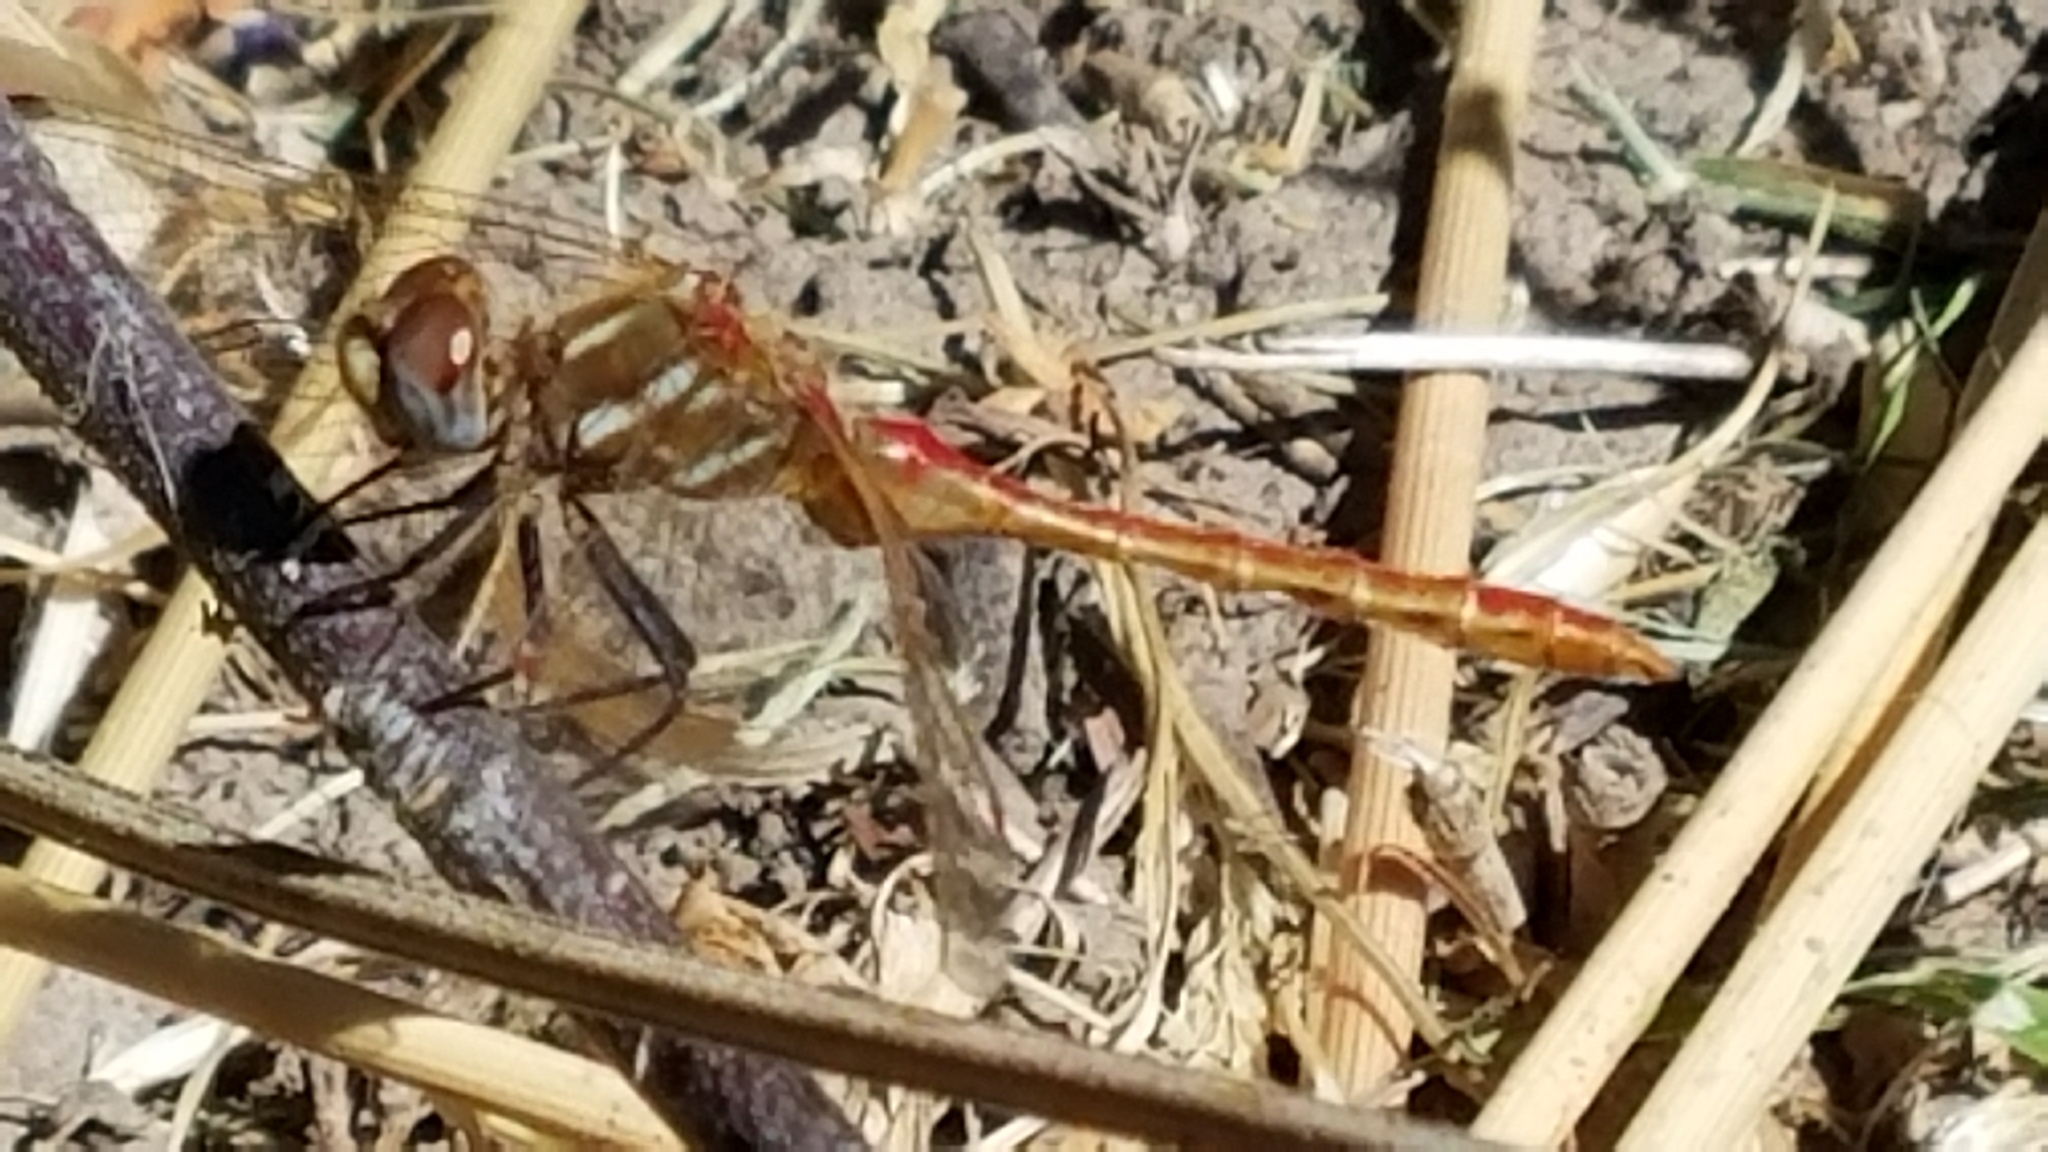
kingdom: Animalia
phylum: Arthropoda
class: Insecta
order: Odonata
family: Libellulidae
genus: Sympetrum
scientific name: Sympetrum pallipes
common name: Striped meadowhawk
